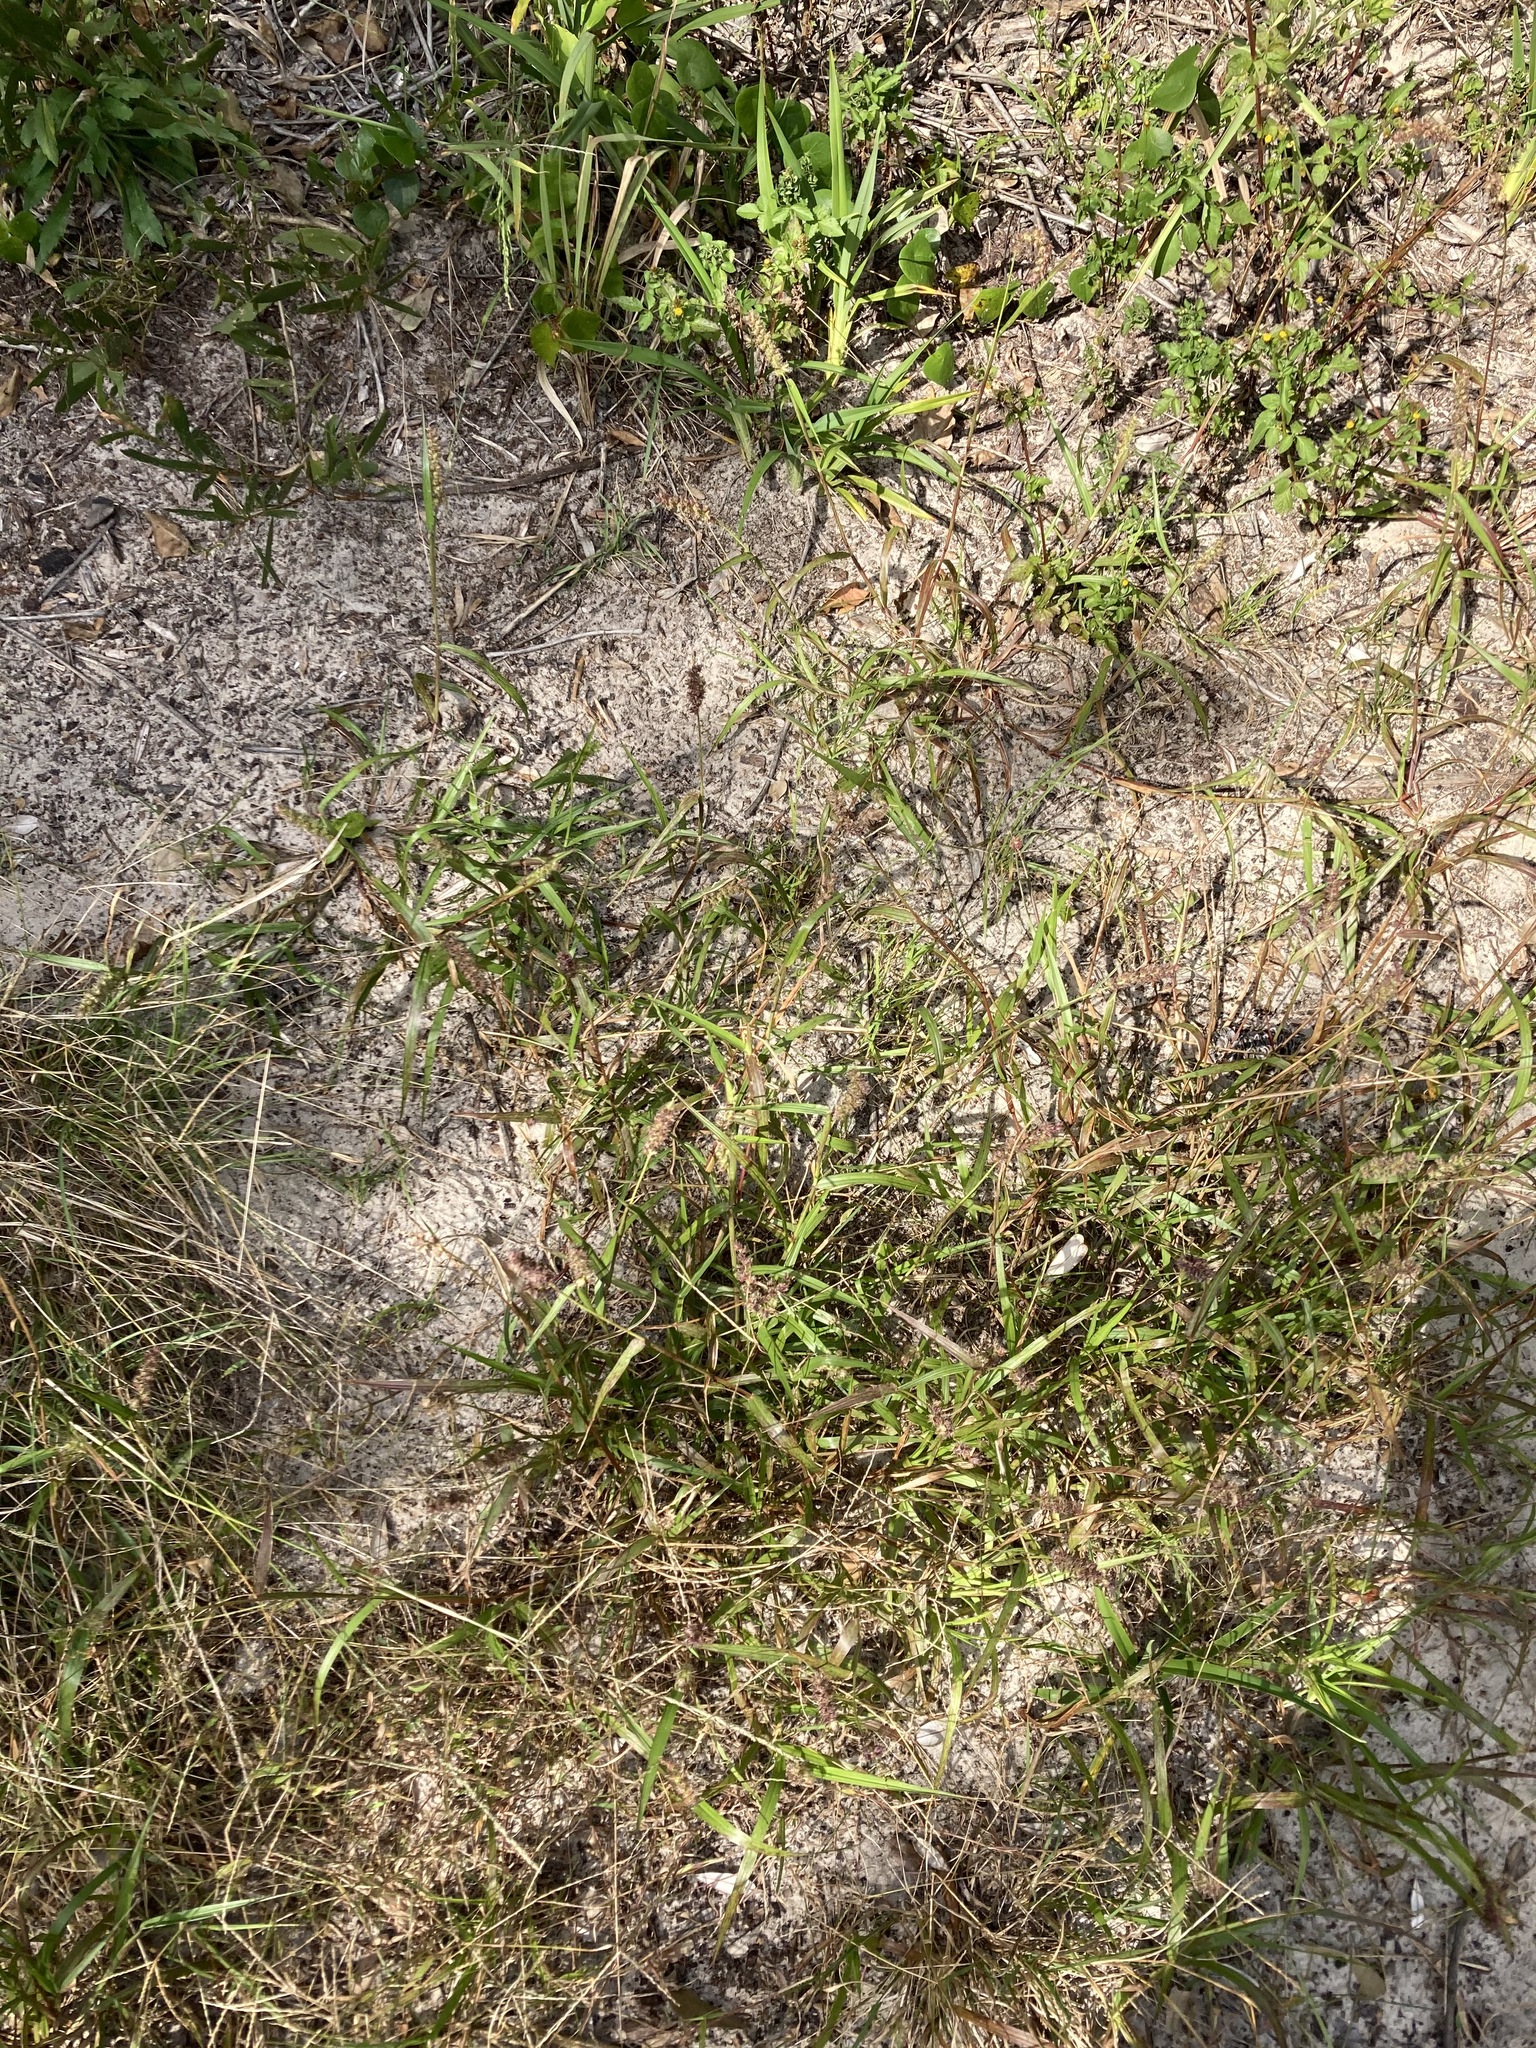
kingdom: Plantae
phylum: Tracheophyta
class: Liliopsida
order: Poales
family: Poaceae
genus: Cenchrus
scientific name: Cenchrus echinatus
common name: Southern sandbur
